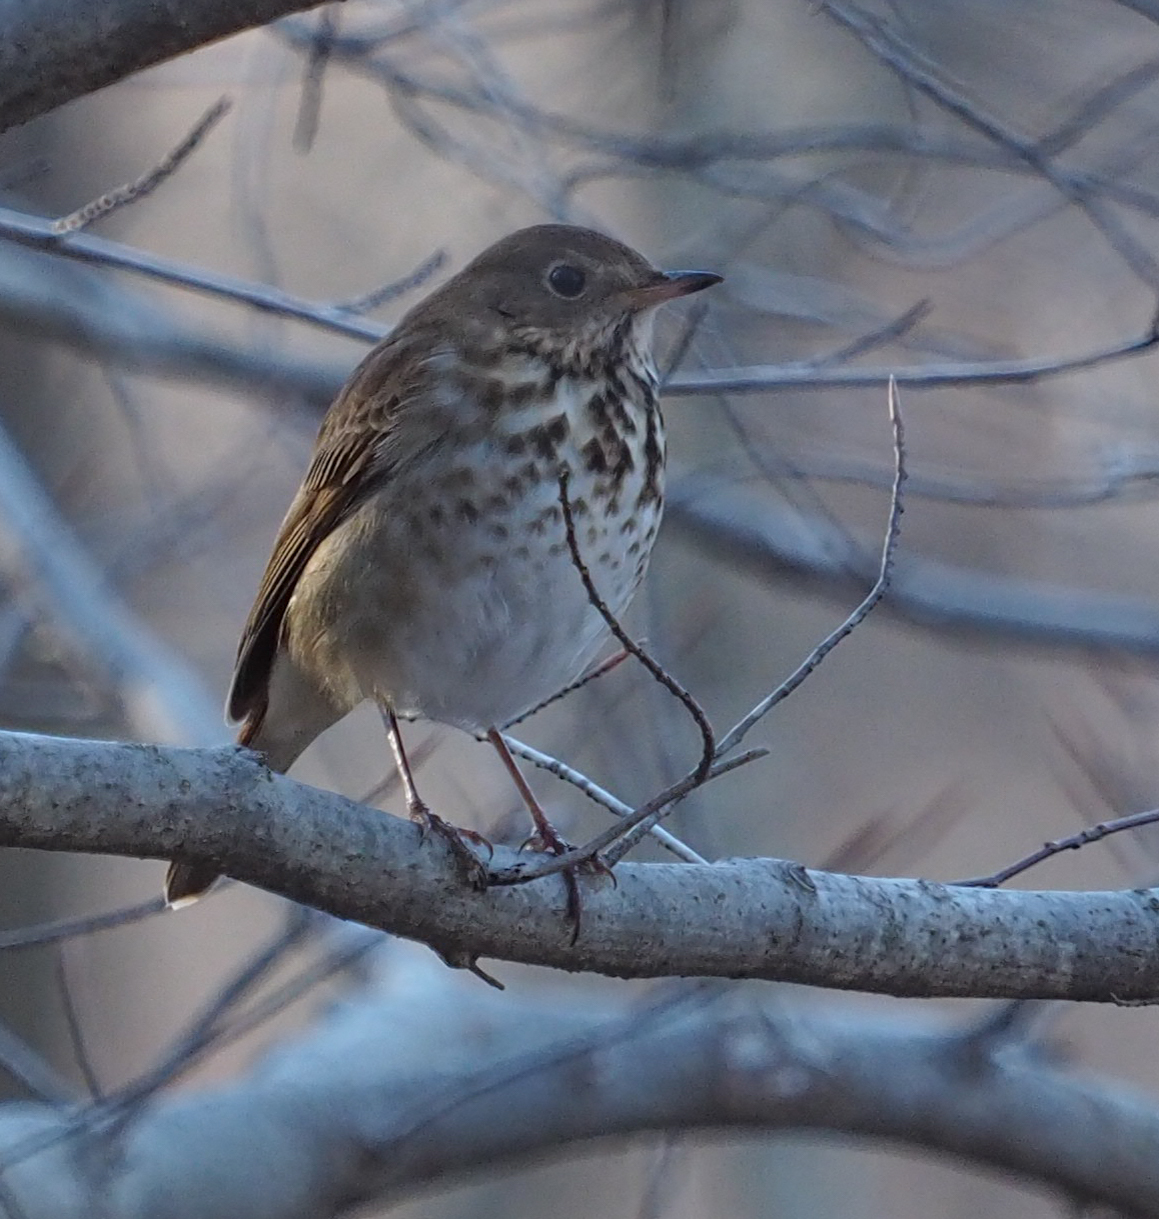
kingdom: Animalia
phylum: Chordata
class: Aves
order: Passeriformes
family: Turdidae
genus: Catharus
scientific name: Catharus guttatus
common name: Hermit thrush
